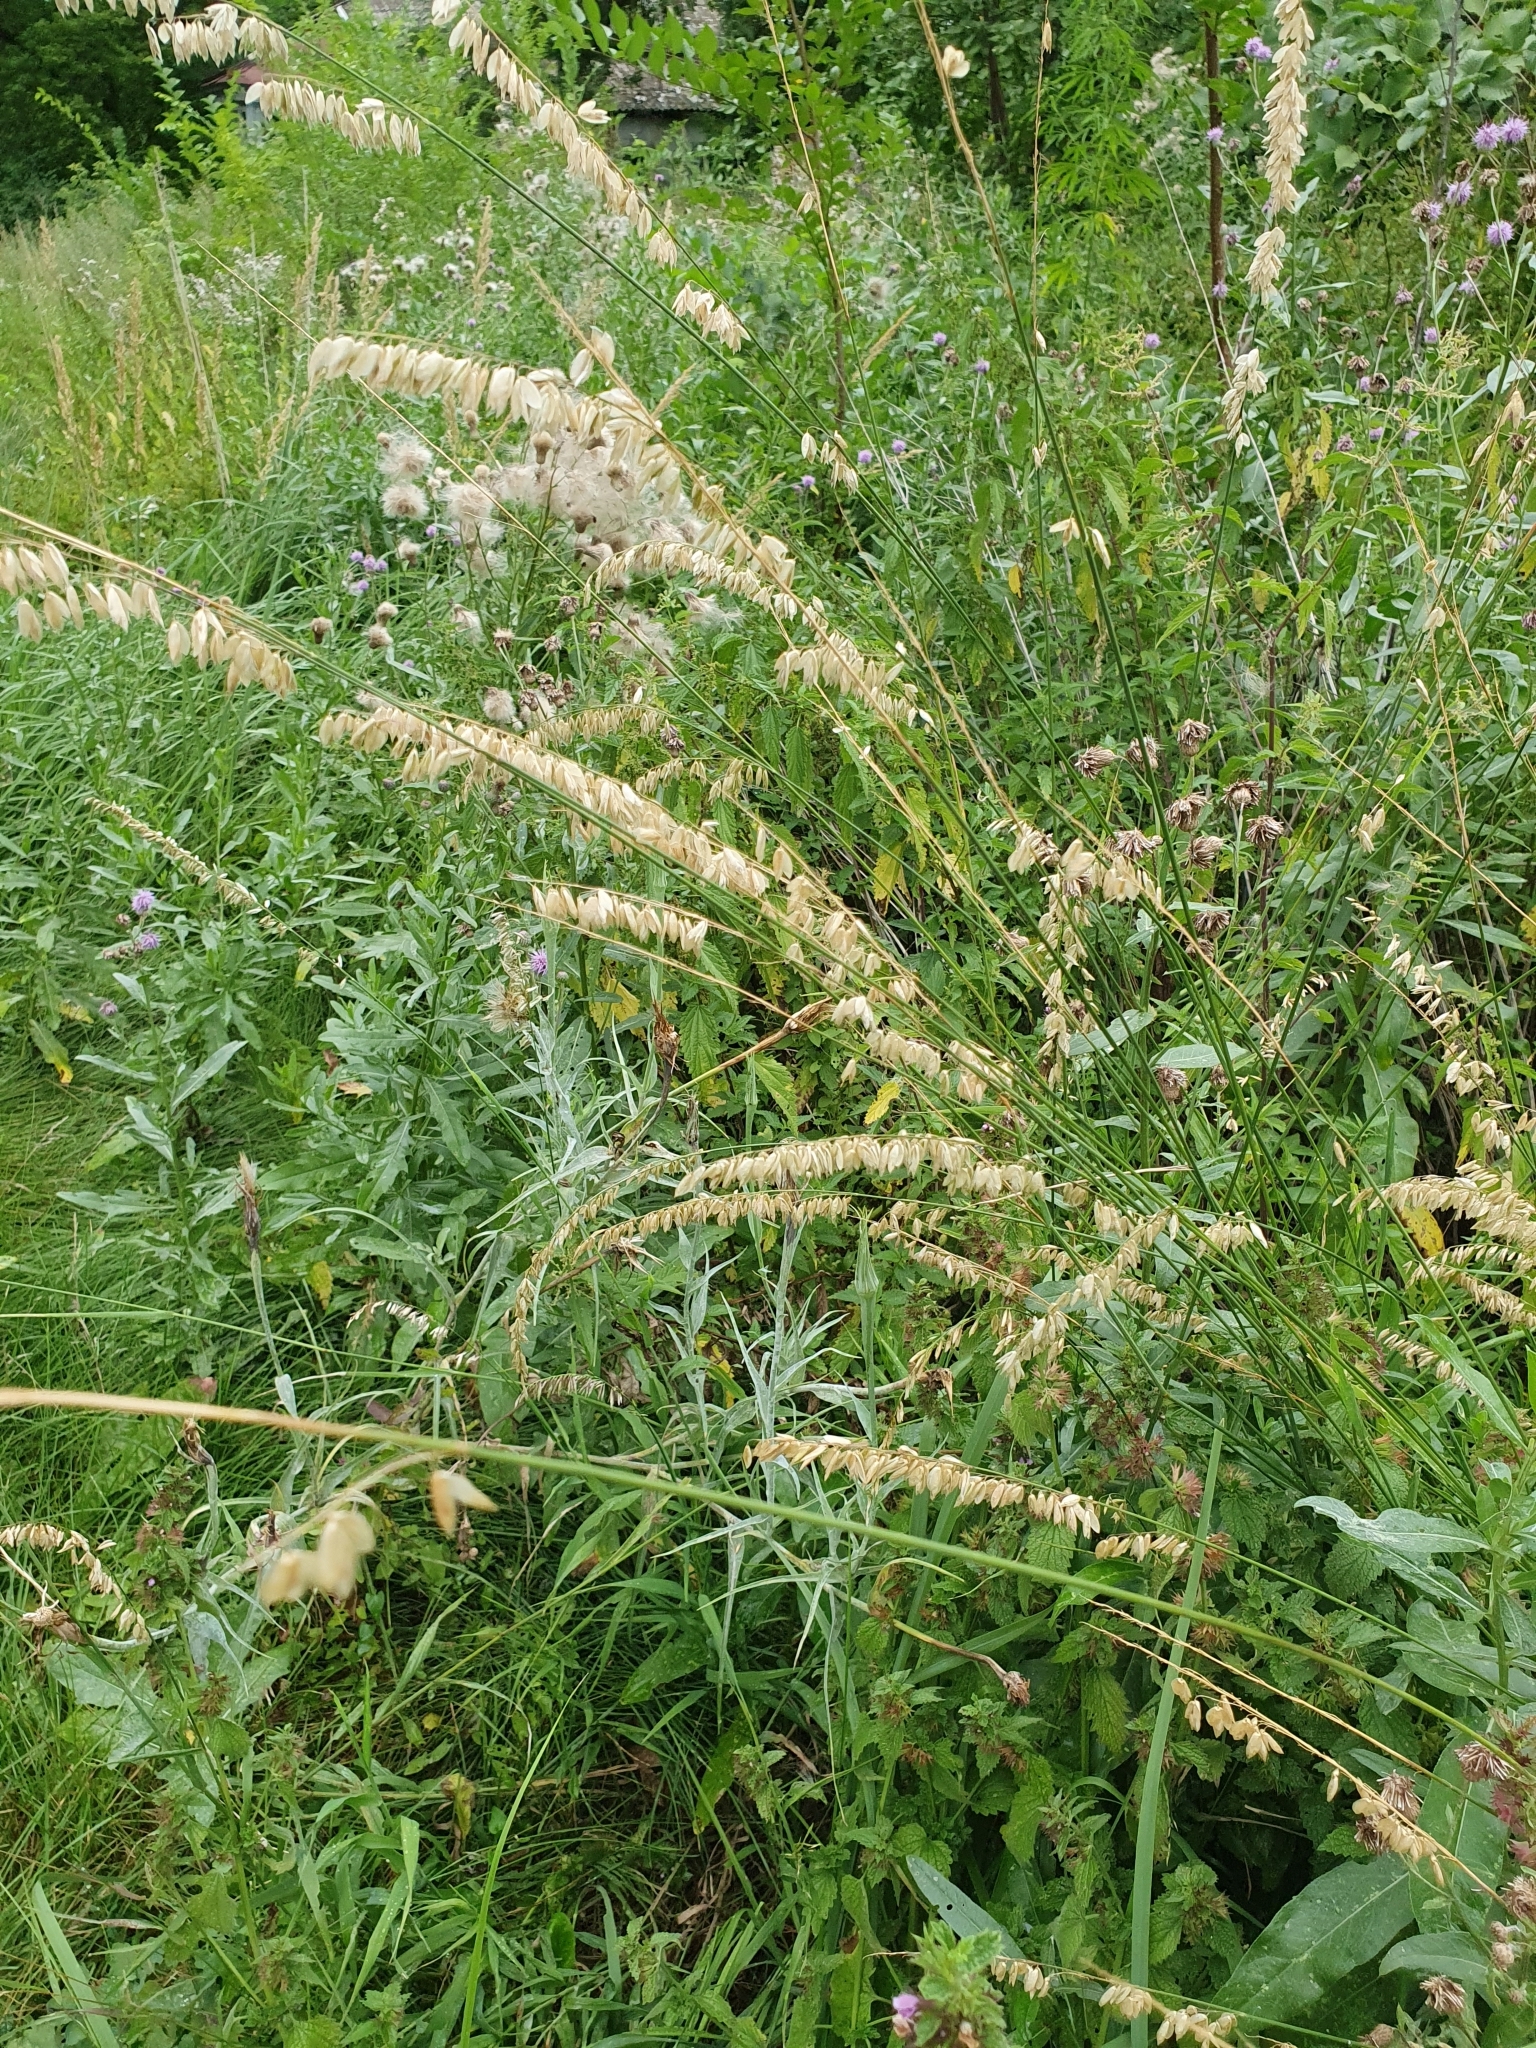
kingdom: Plantae
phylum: Tracheophyta
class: Liliopsida
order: Poales
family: Poaceae
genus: Melica
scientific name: Melica altissima
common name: Siberian melicgrass
